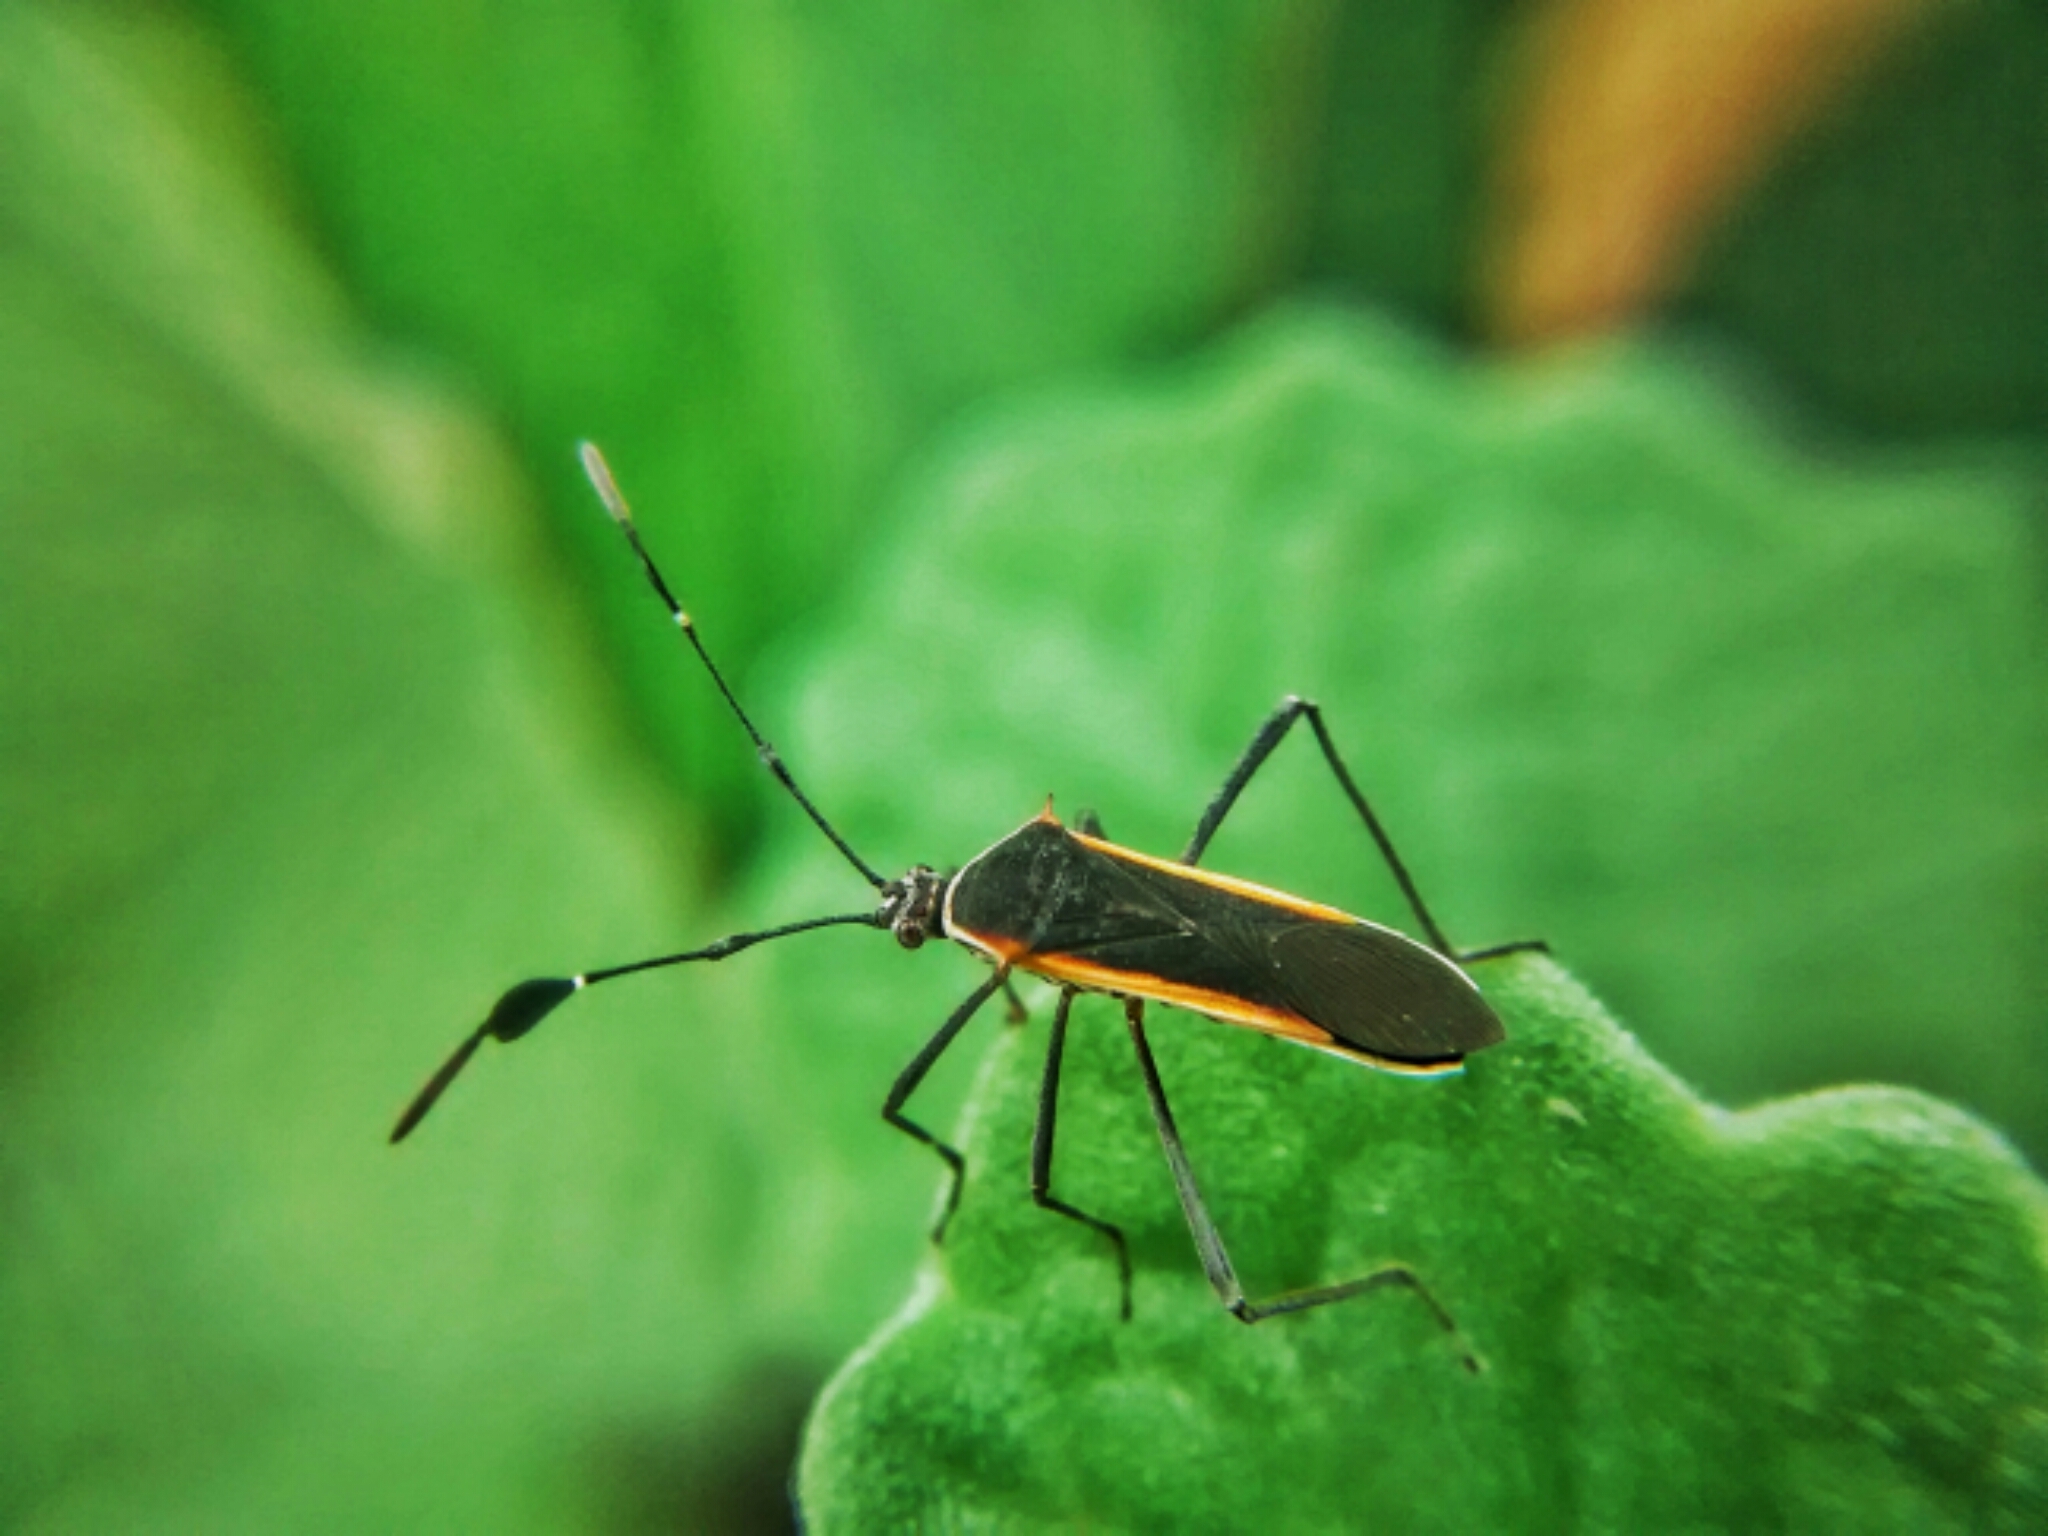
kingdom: Animalia
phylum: Arthropoda
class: Insecta
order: Hemiptera
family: Coreidae
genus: Plapigus
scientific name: Plapigus circumcinctus
